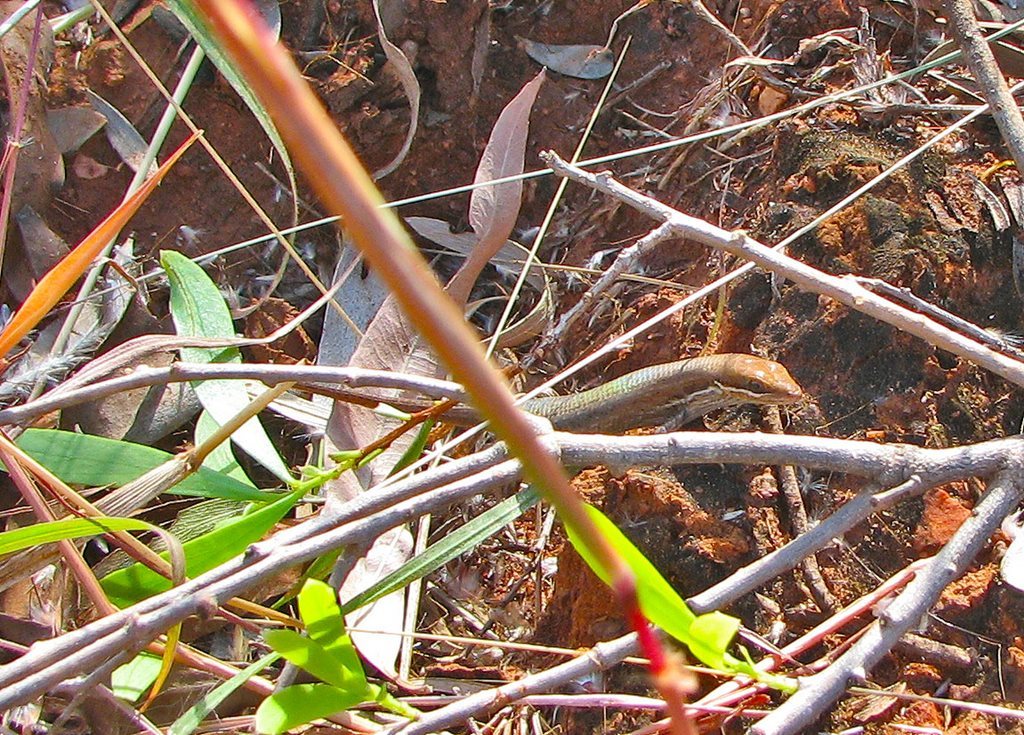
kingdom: Animalia
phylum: Chordata
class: Squamata
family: Scincidae
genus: Carlia
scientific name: Carlia munda
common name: Shaded-litter rainbow-skink
